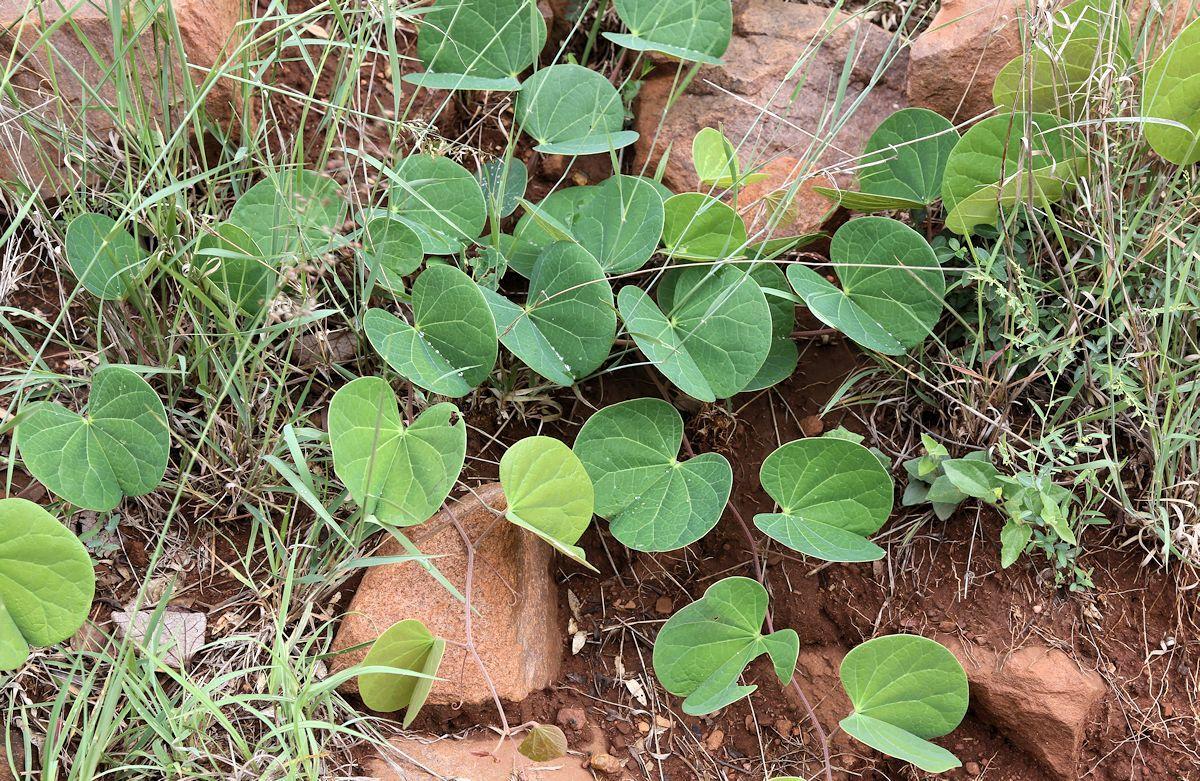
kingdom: Plantae
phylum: Tracheophyta
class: Magnoliopsida
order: Fabales
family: Fabaceae
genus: Tylosema
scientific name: Tylosema fassoglense
